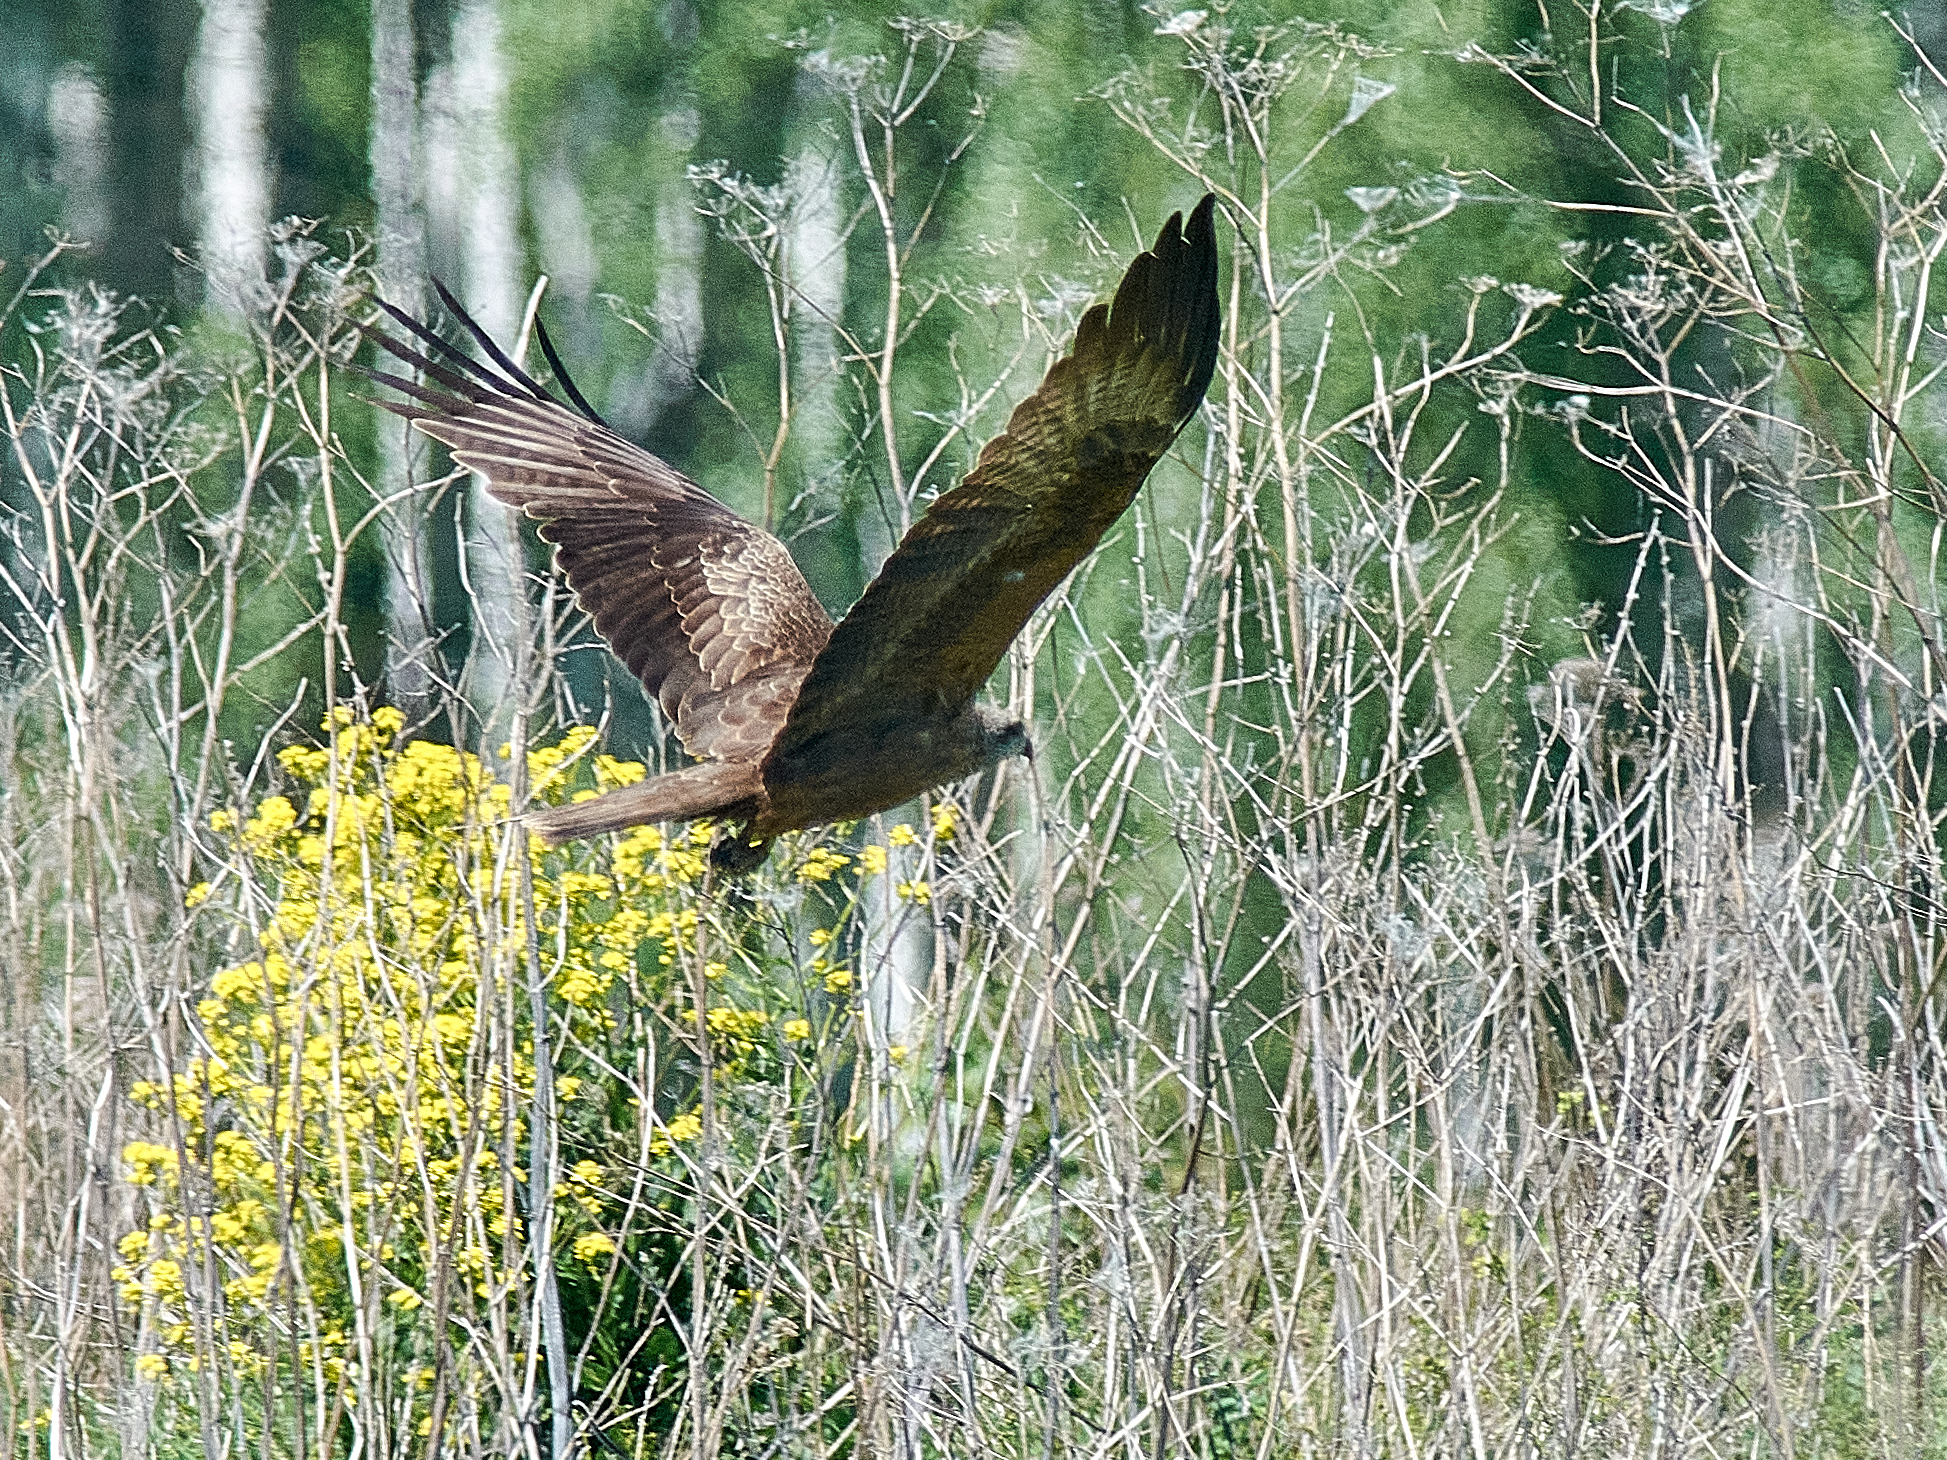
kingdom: Animalia
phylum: Chordata
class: Aves
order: Accipitriformes
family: Accipitridae
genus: Milvus
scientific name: Milvus migrans
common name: Black kite
